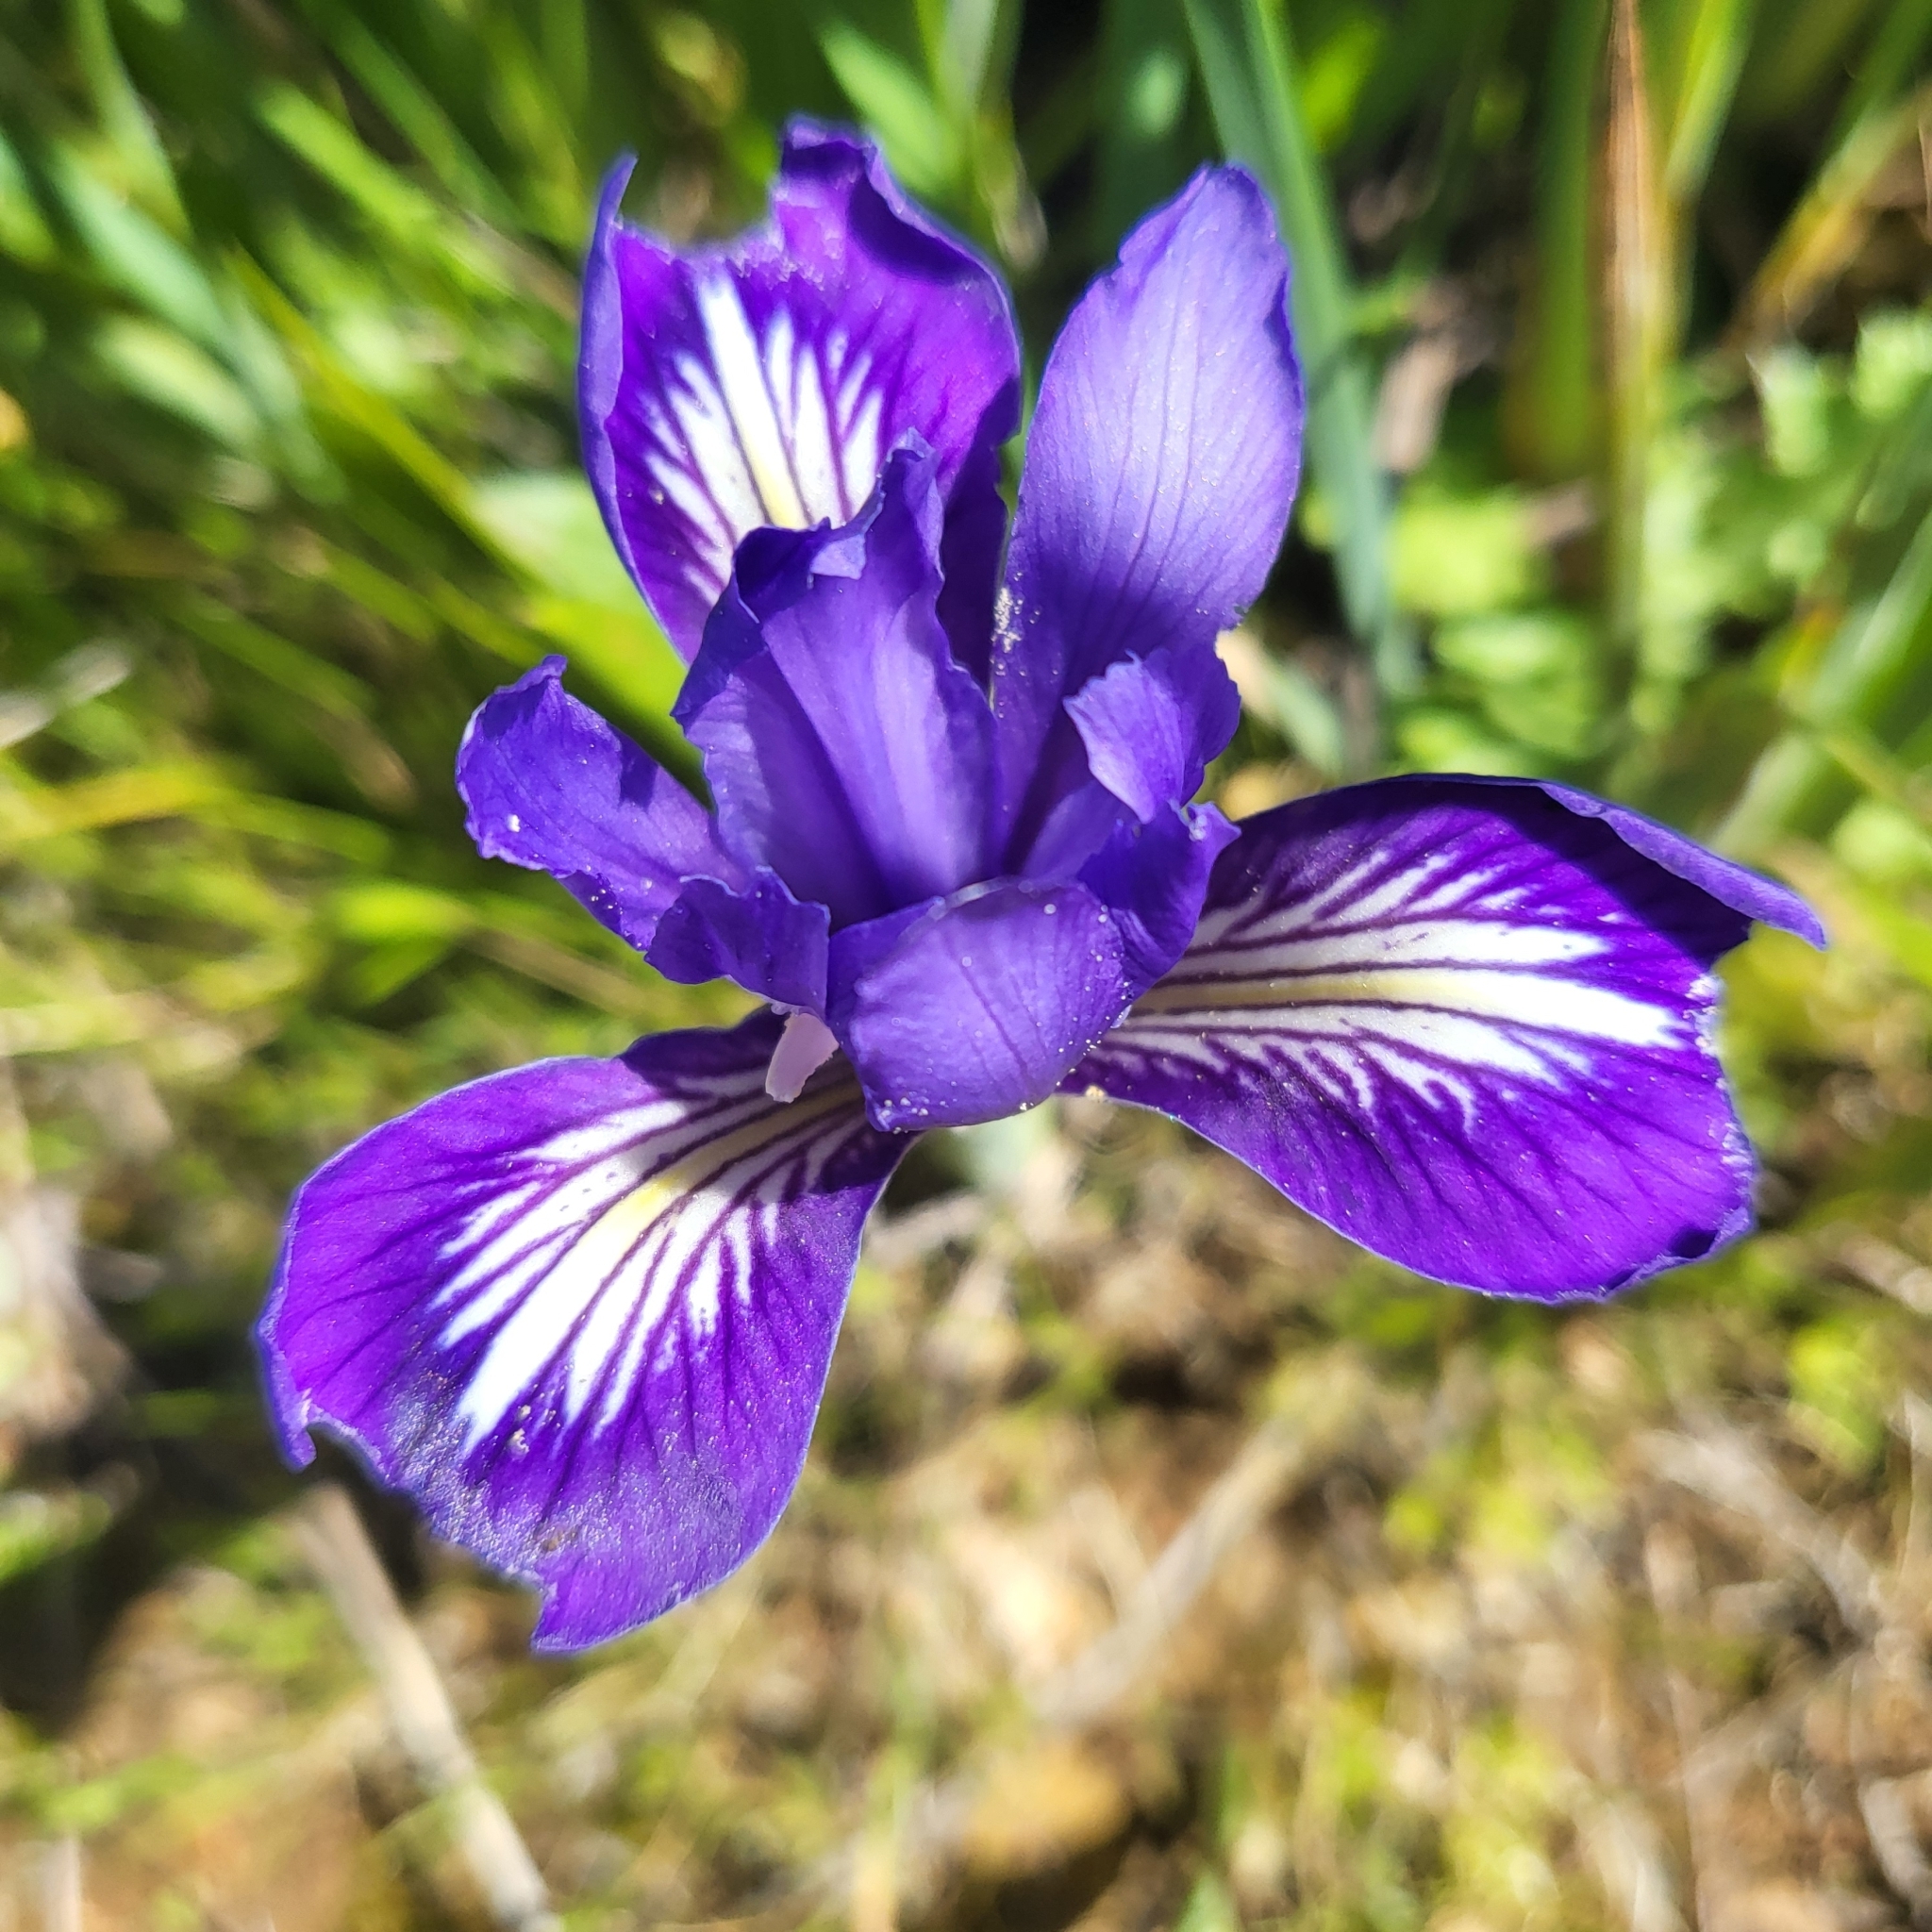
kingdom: Plantae
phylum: Tracheophyta
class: Liliopsida
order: Asparagales
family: Iridaceae
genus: Iris
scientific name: Iris macrosiphon
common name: Ground iris
